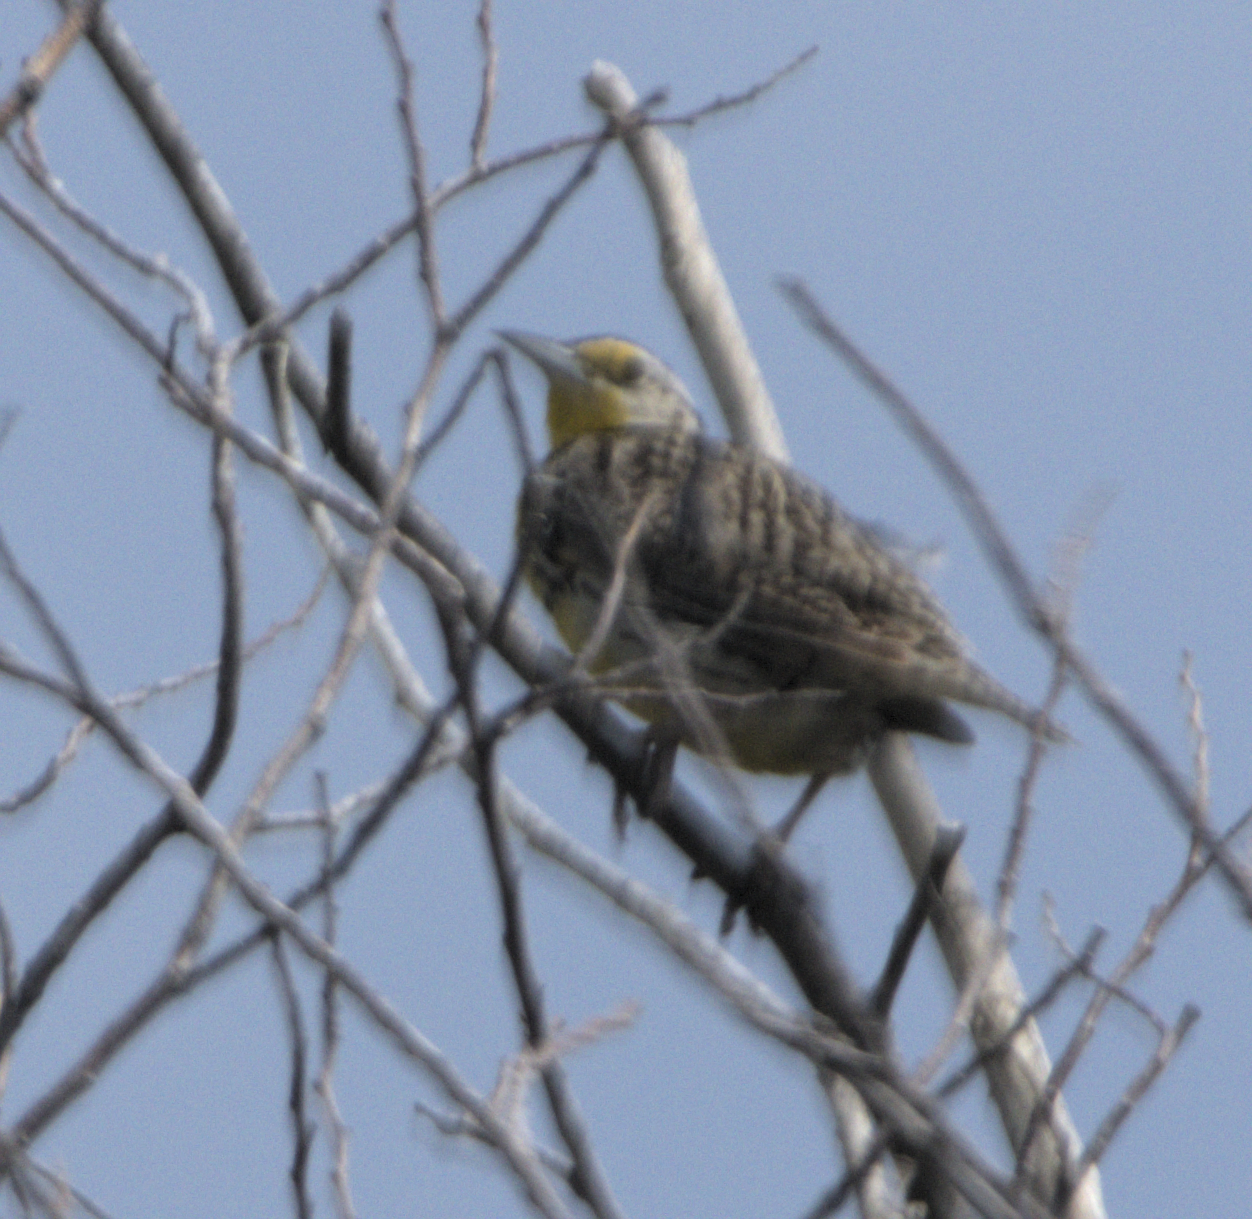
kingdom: Animalia
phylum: Chordata
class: Aves
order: Passeriformes
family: Icteridae
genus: Sturnella
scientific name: Sturnella neglecta
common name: Western meadowlark
